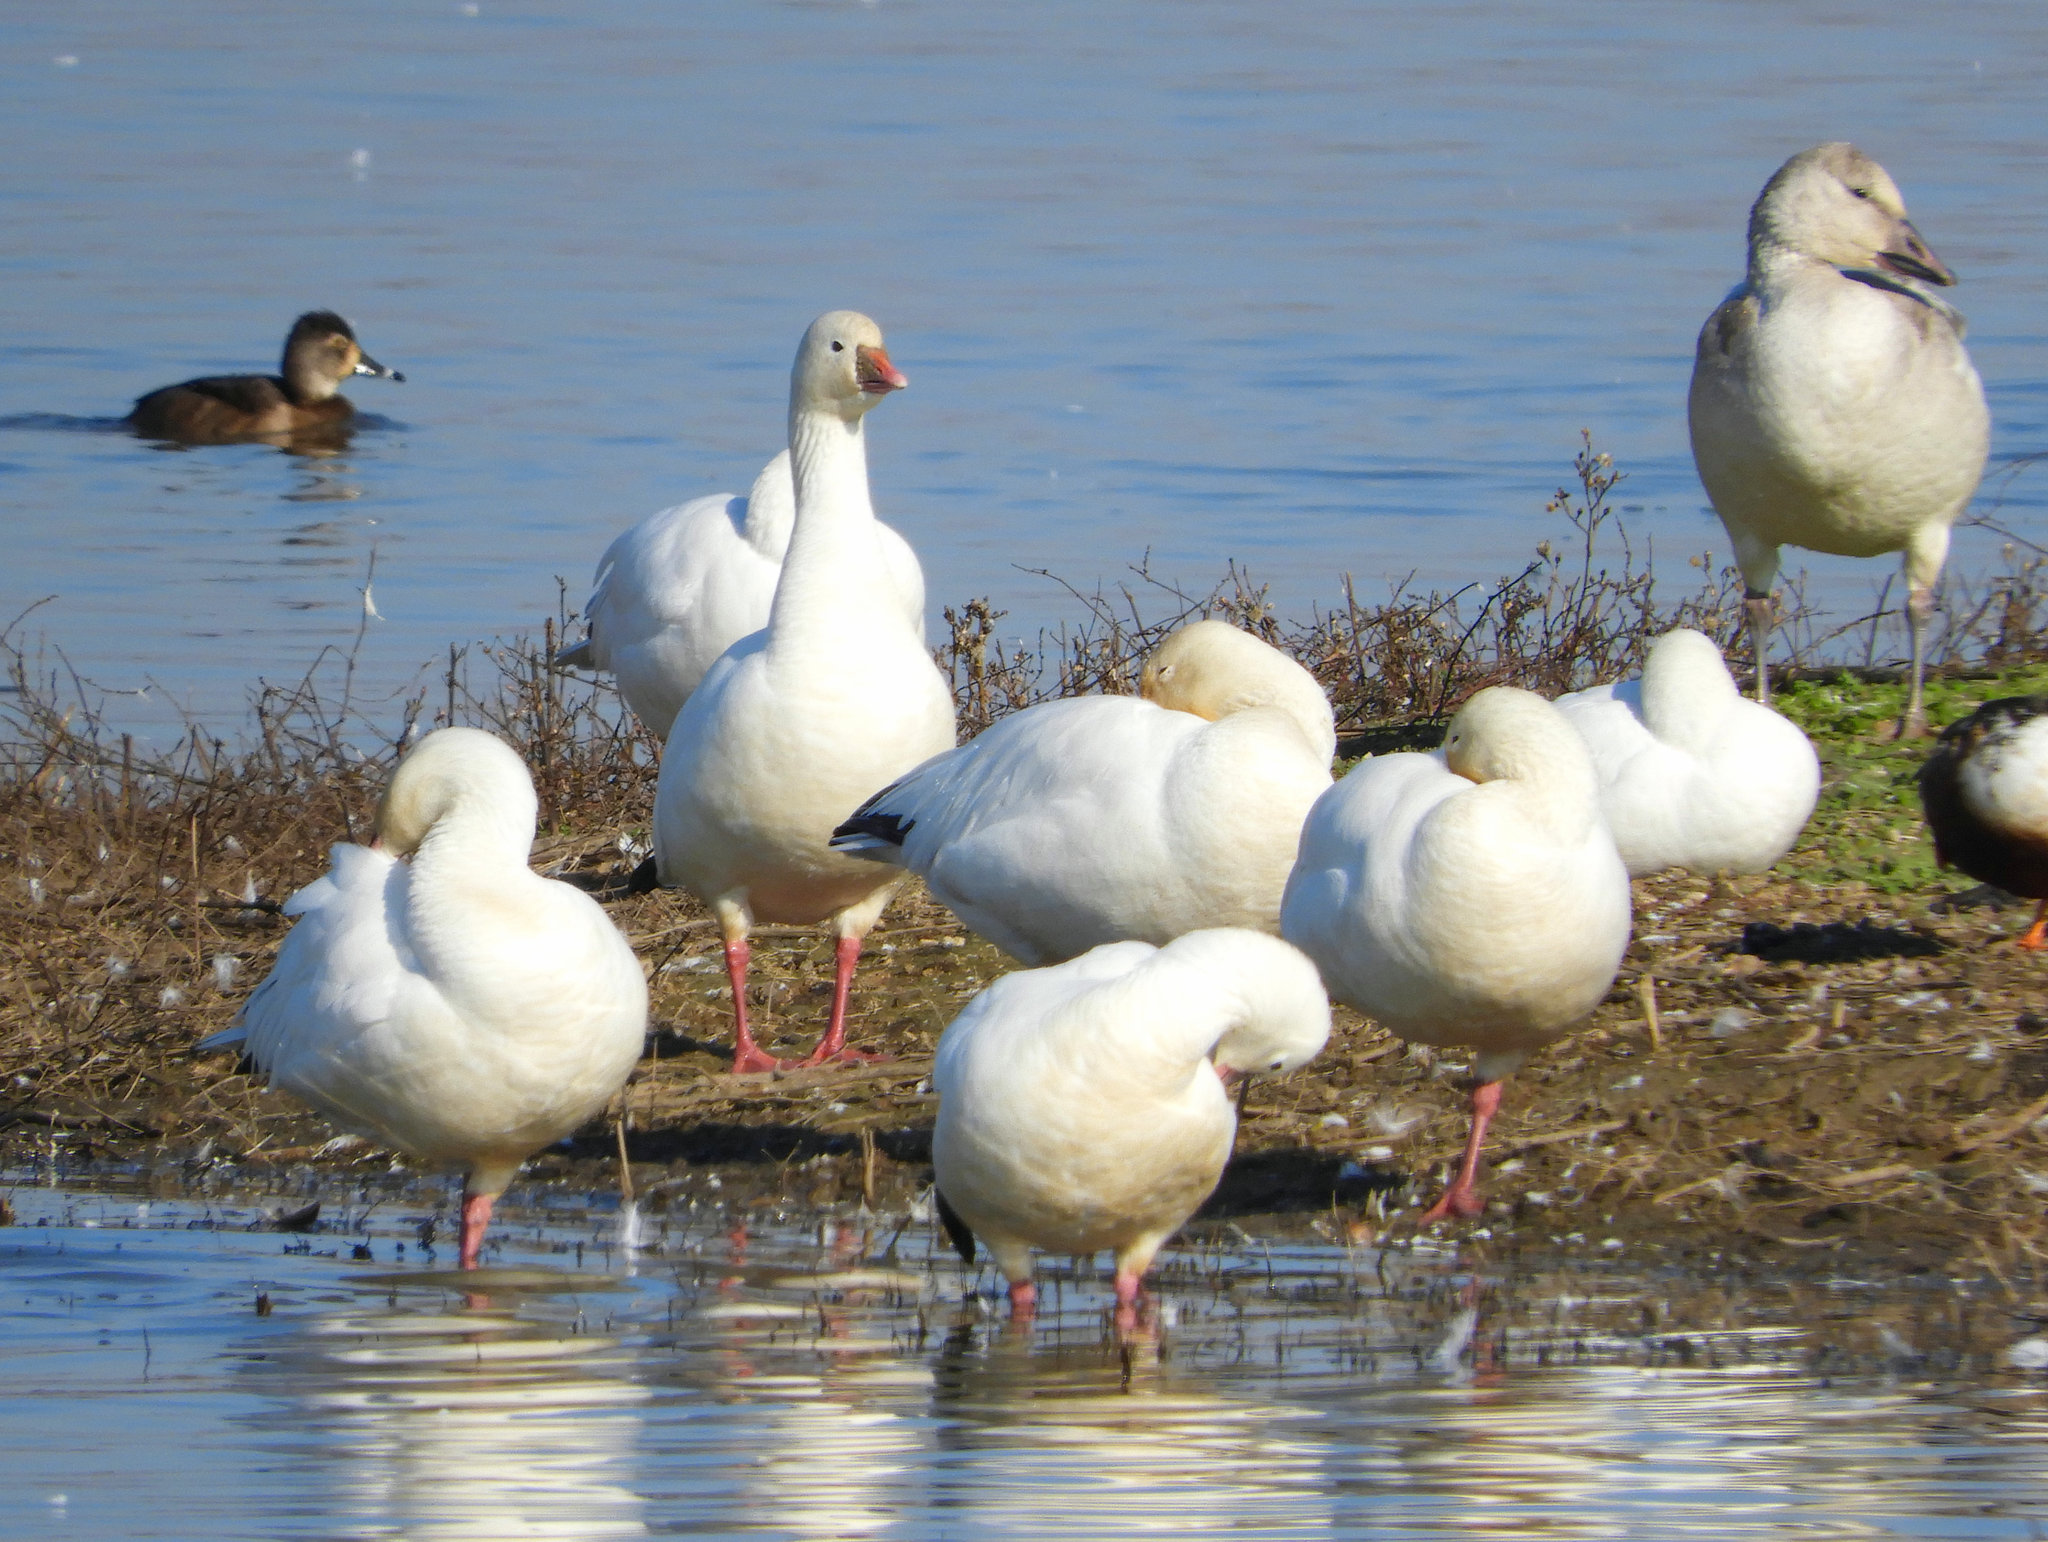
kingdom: Animalia
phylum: Chordata
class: Aves
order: Anseriformes
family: Anatidae
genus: Anser
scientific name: Anser rossii
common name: Ross's goose
